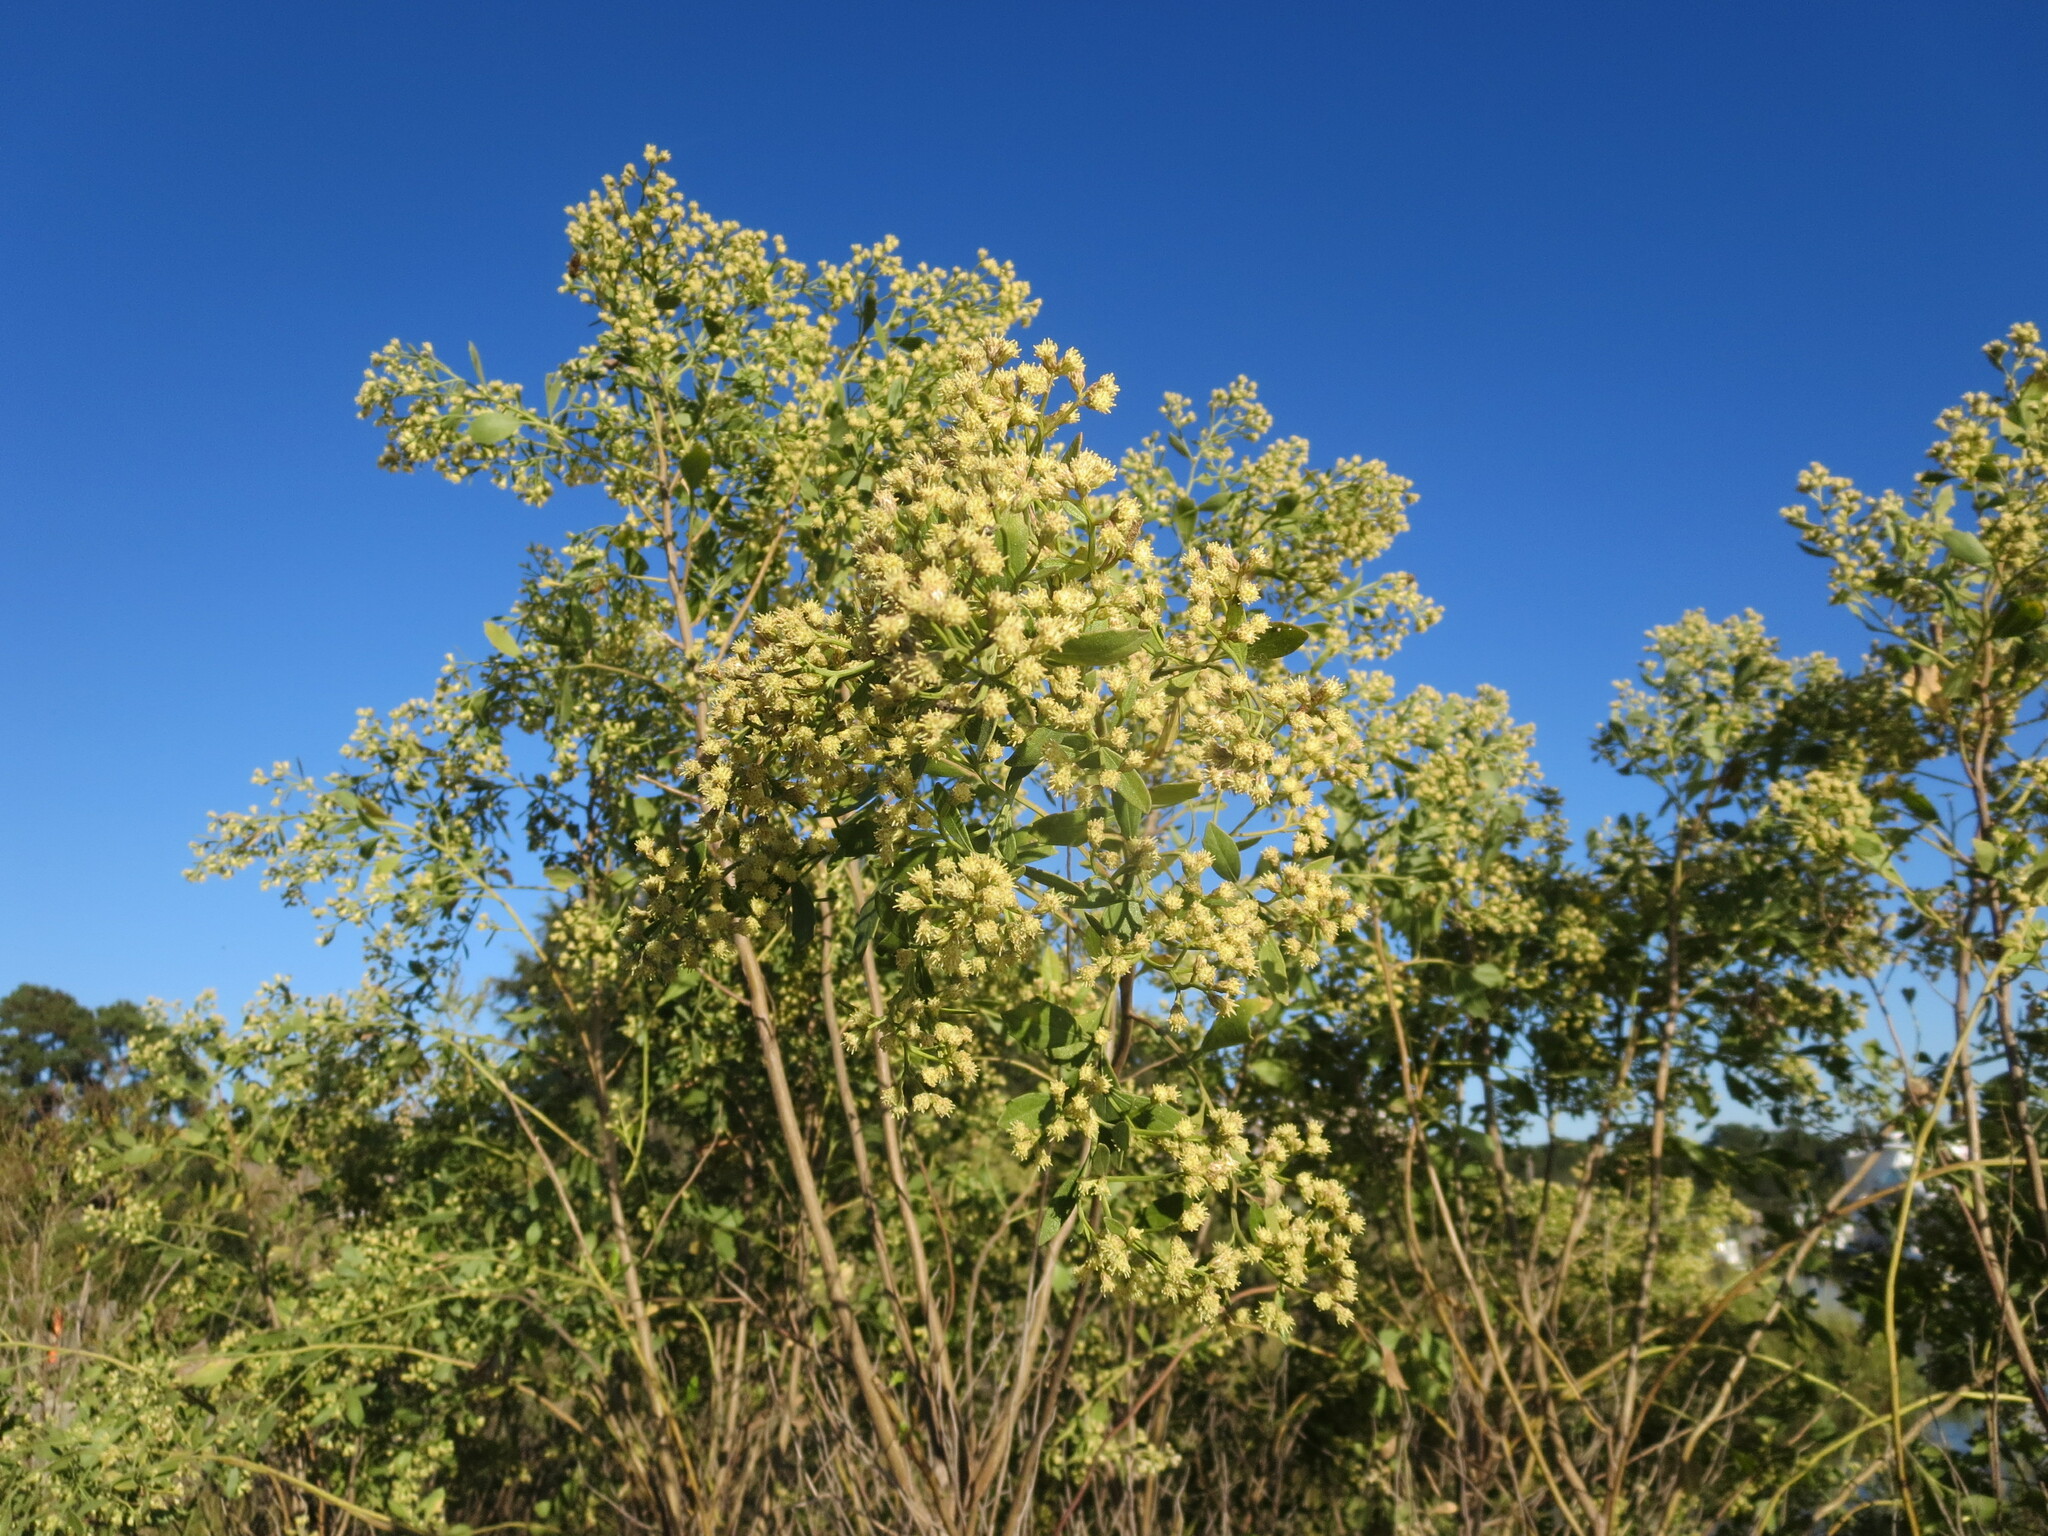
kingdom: Plantae
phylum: Tracheophyta
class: Magnoliopsida
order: Asterales
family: Asteraceae
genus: Baccharis
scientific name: Baccharis halimifolia
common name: Eastern baccharis
